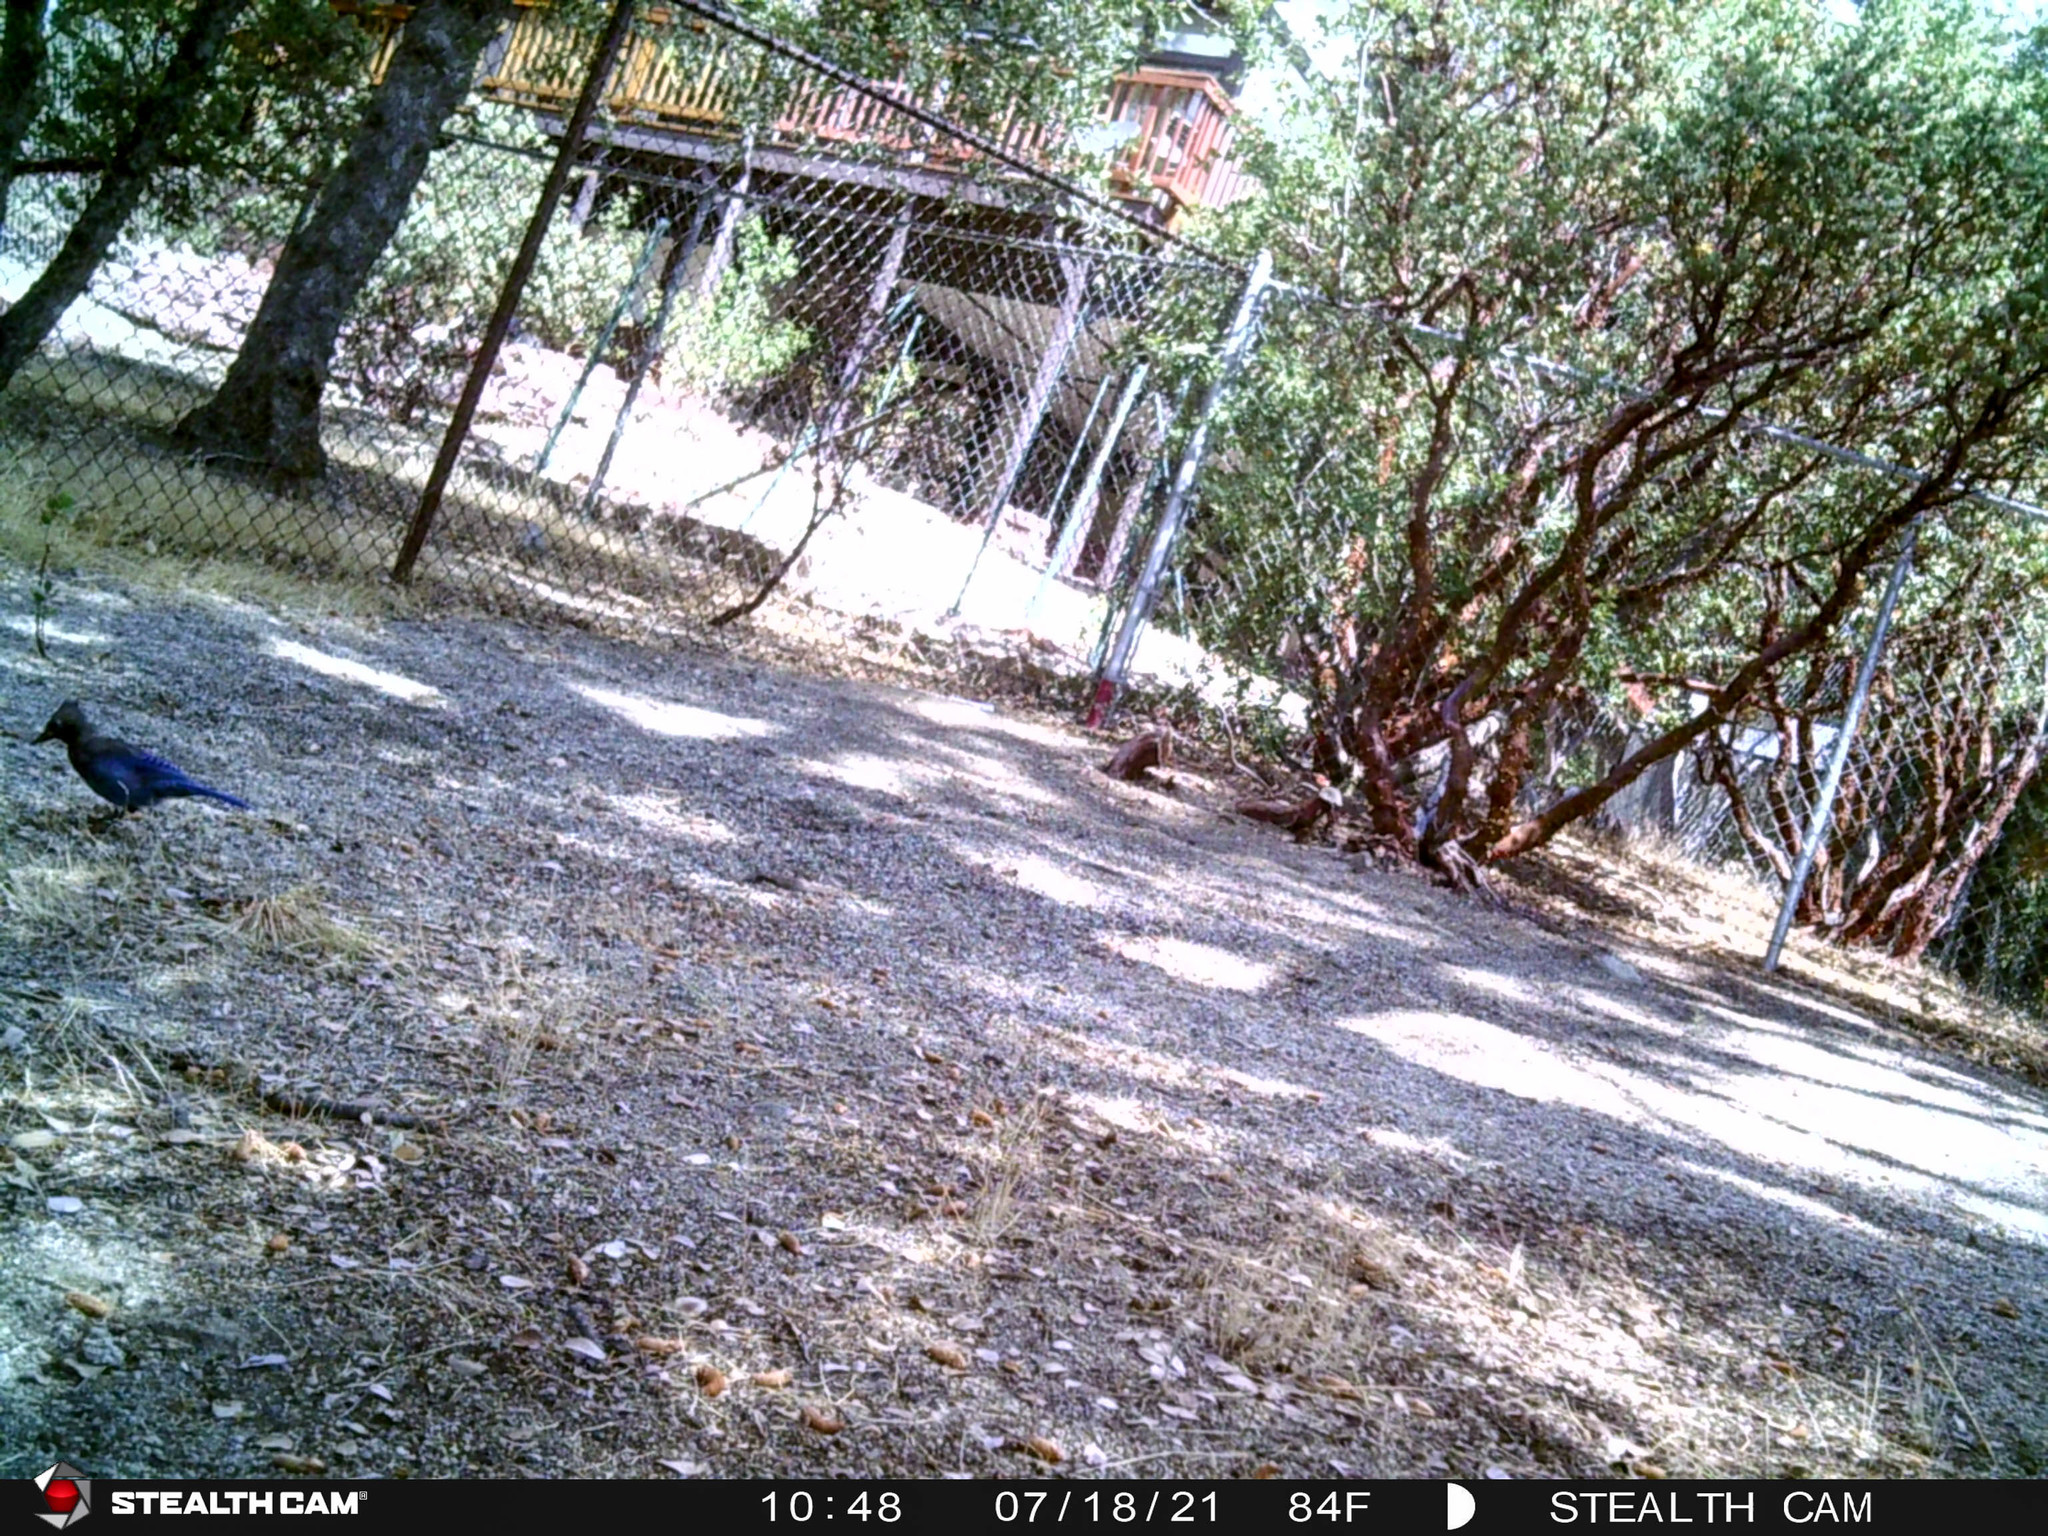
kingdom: Animalia
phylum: Chordata
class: Aves
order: Passeriformes
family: Corvidae
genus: Cyanocitta
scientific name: Cyanocitta stelleri
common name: Steller's jay
